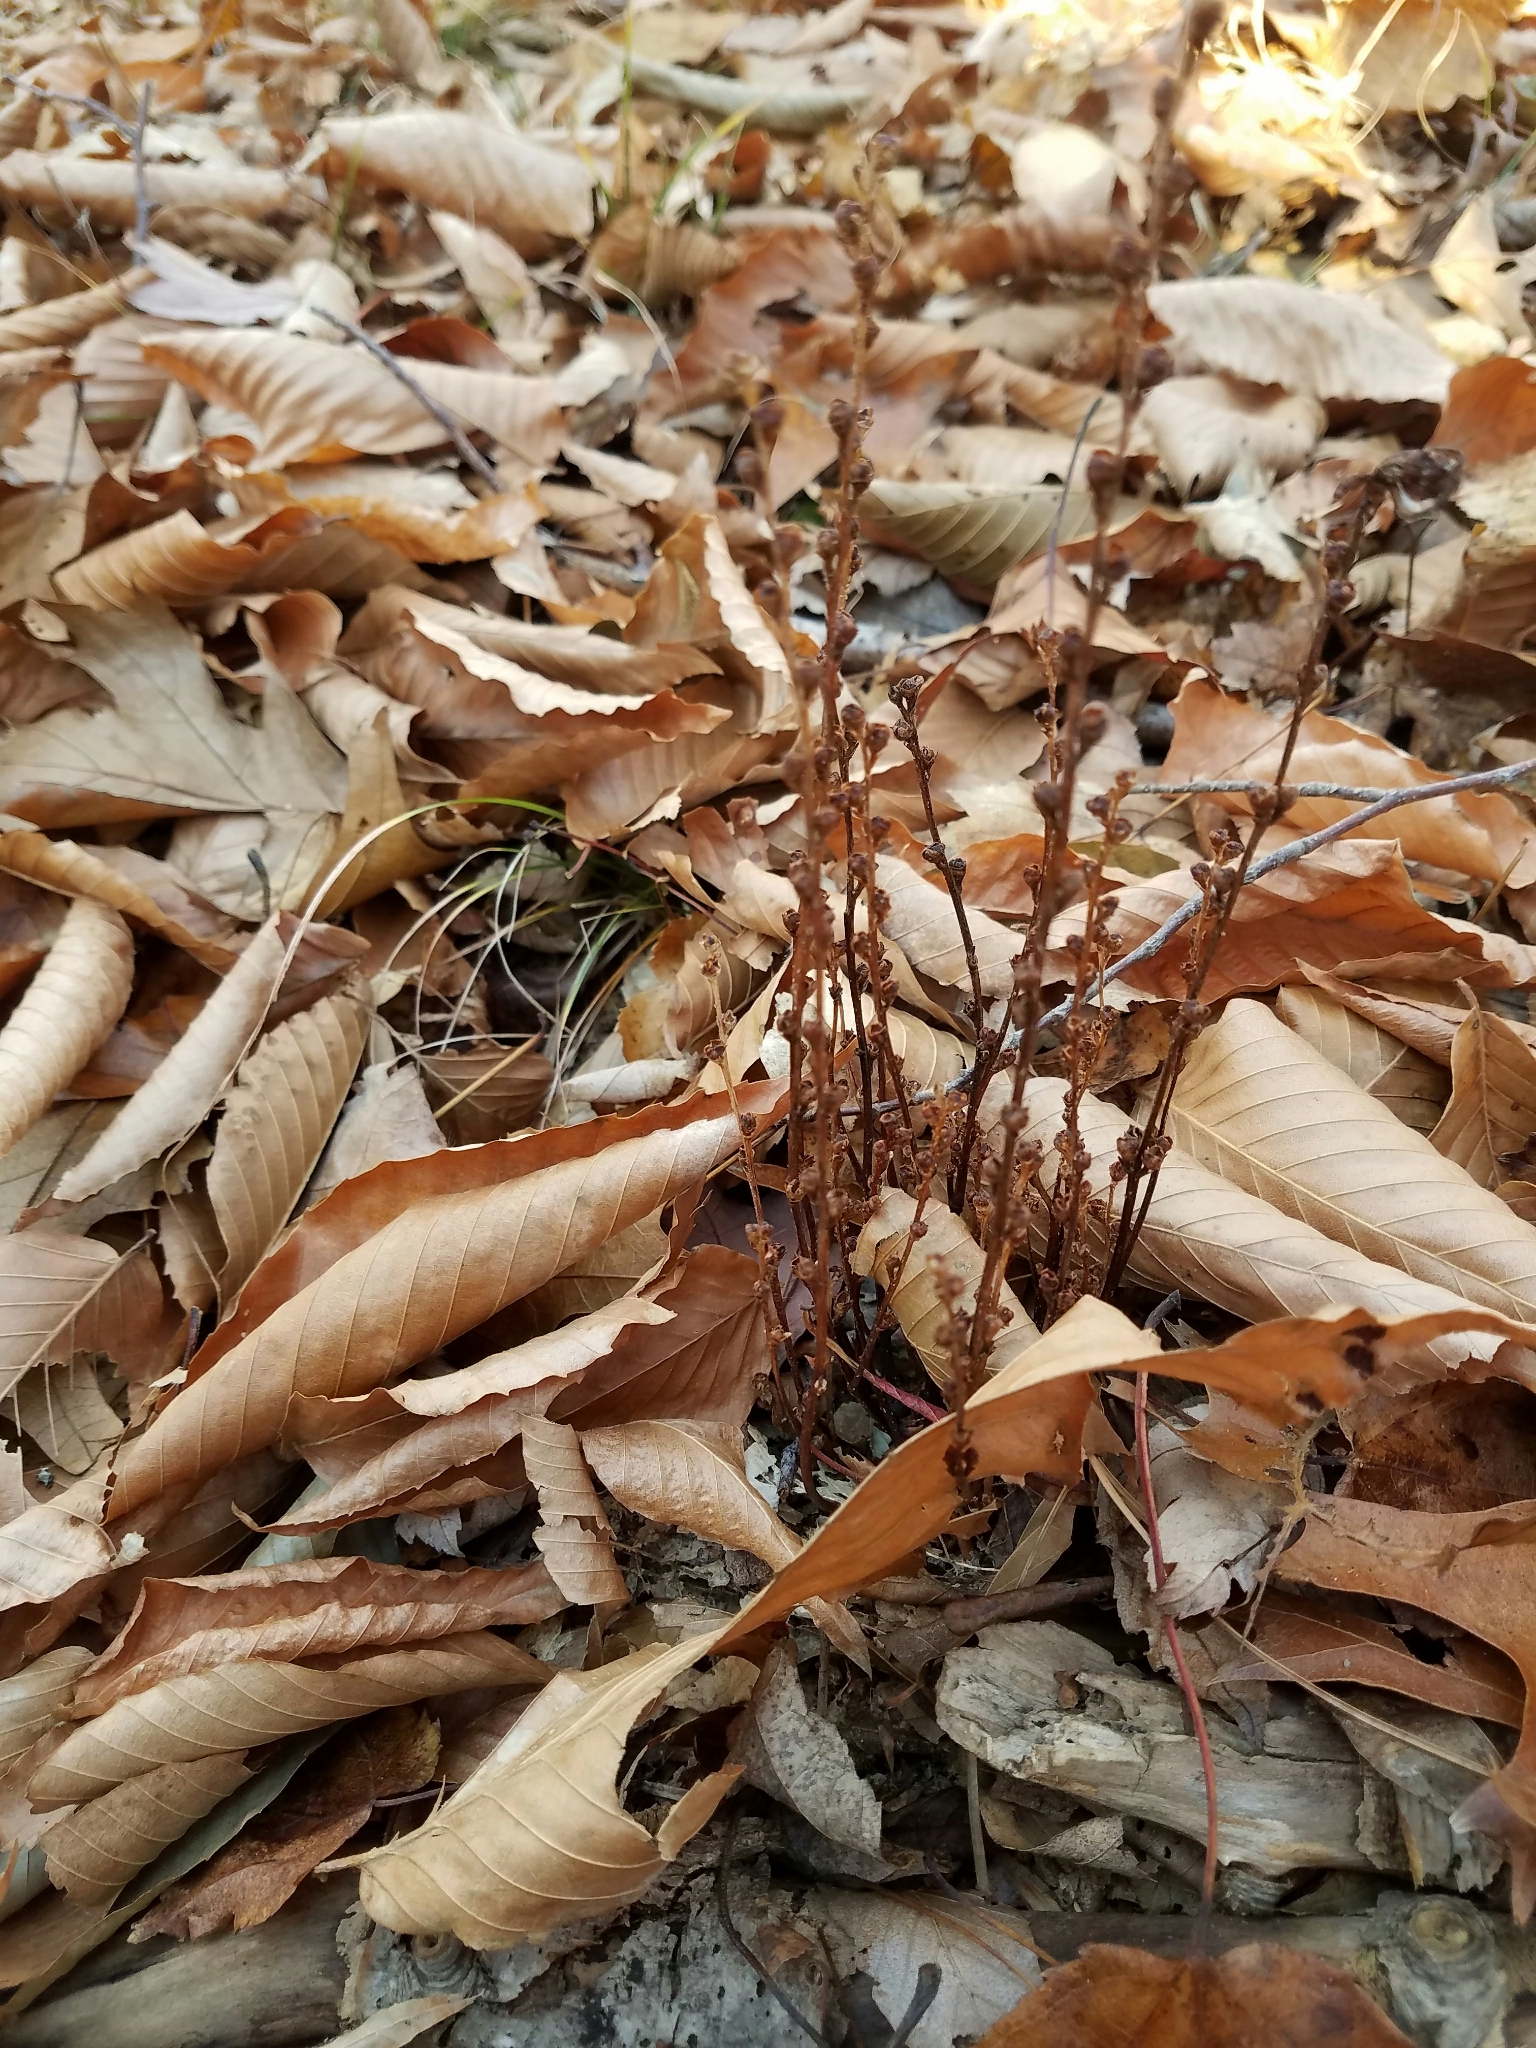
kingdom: Plantae
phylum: Tracheophyta
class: Magnoliopsida
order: Lamiales
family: Orobanchaceae
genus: Epifagus
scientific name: Epifagus virginiana
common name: Beechdrops
